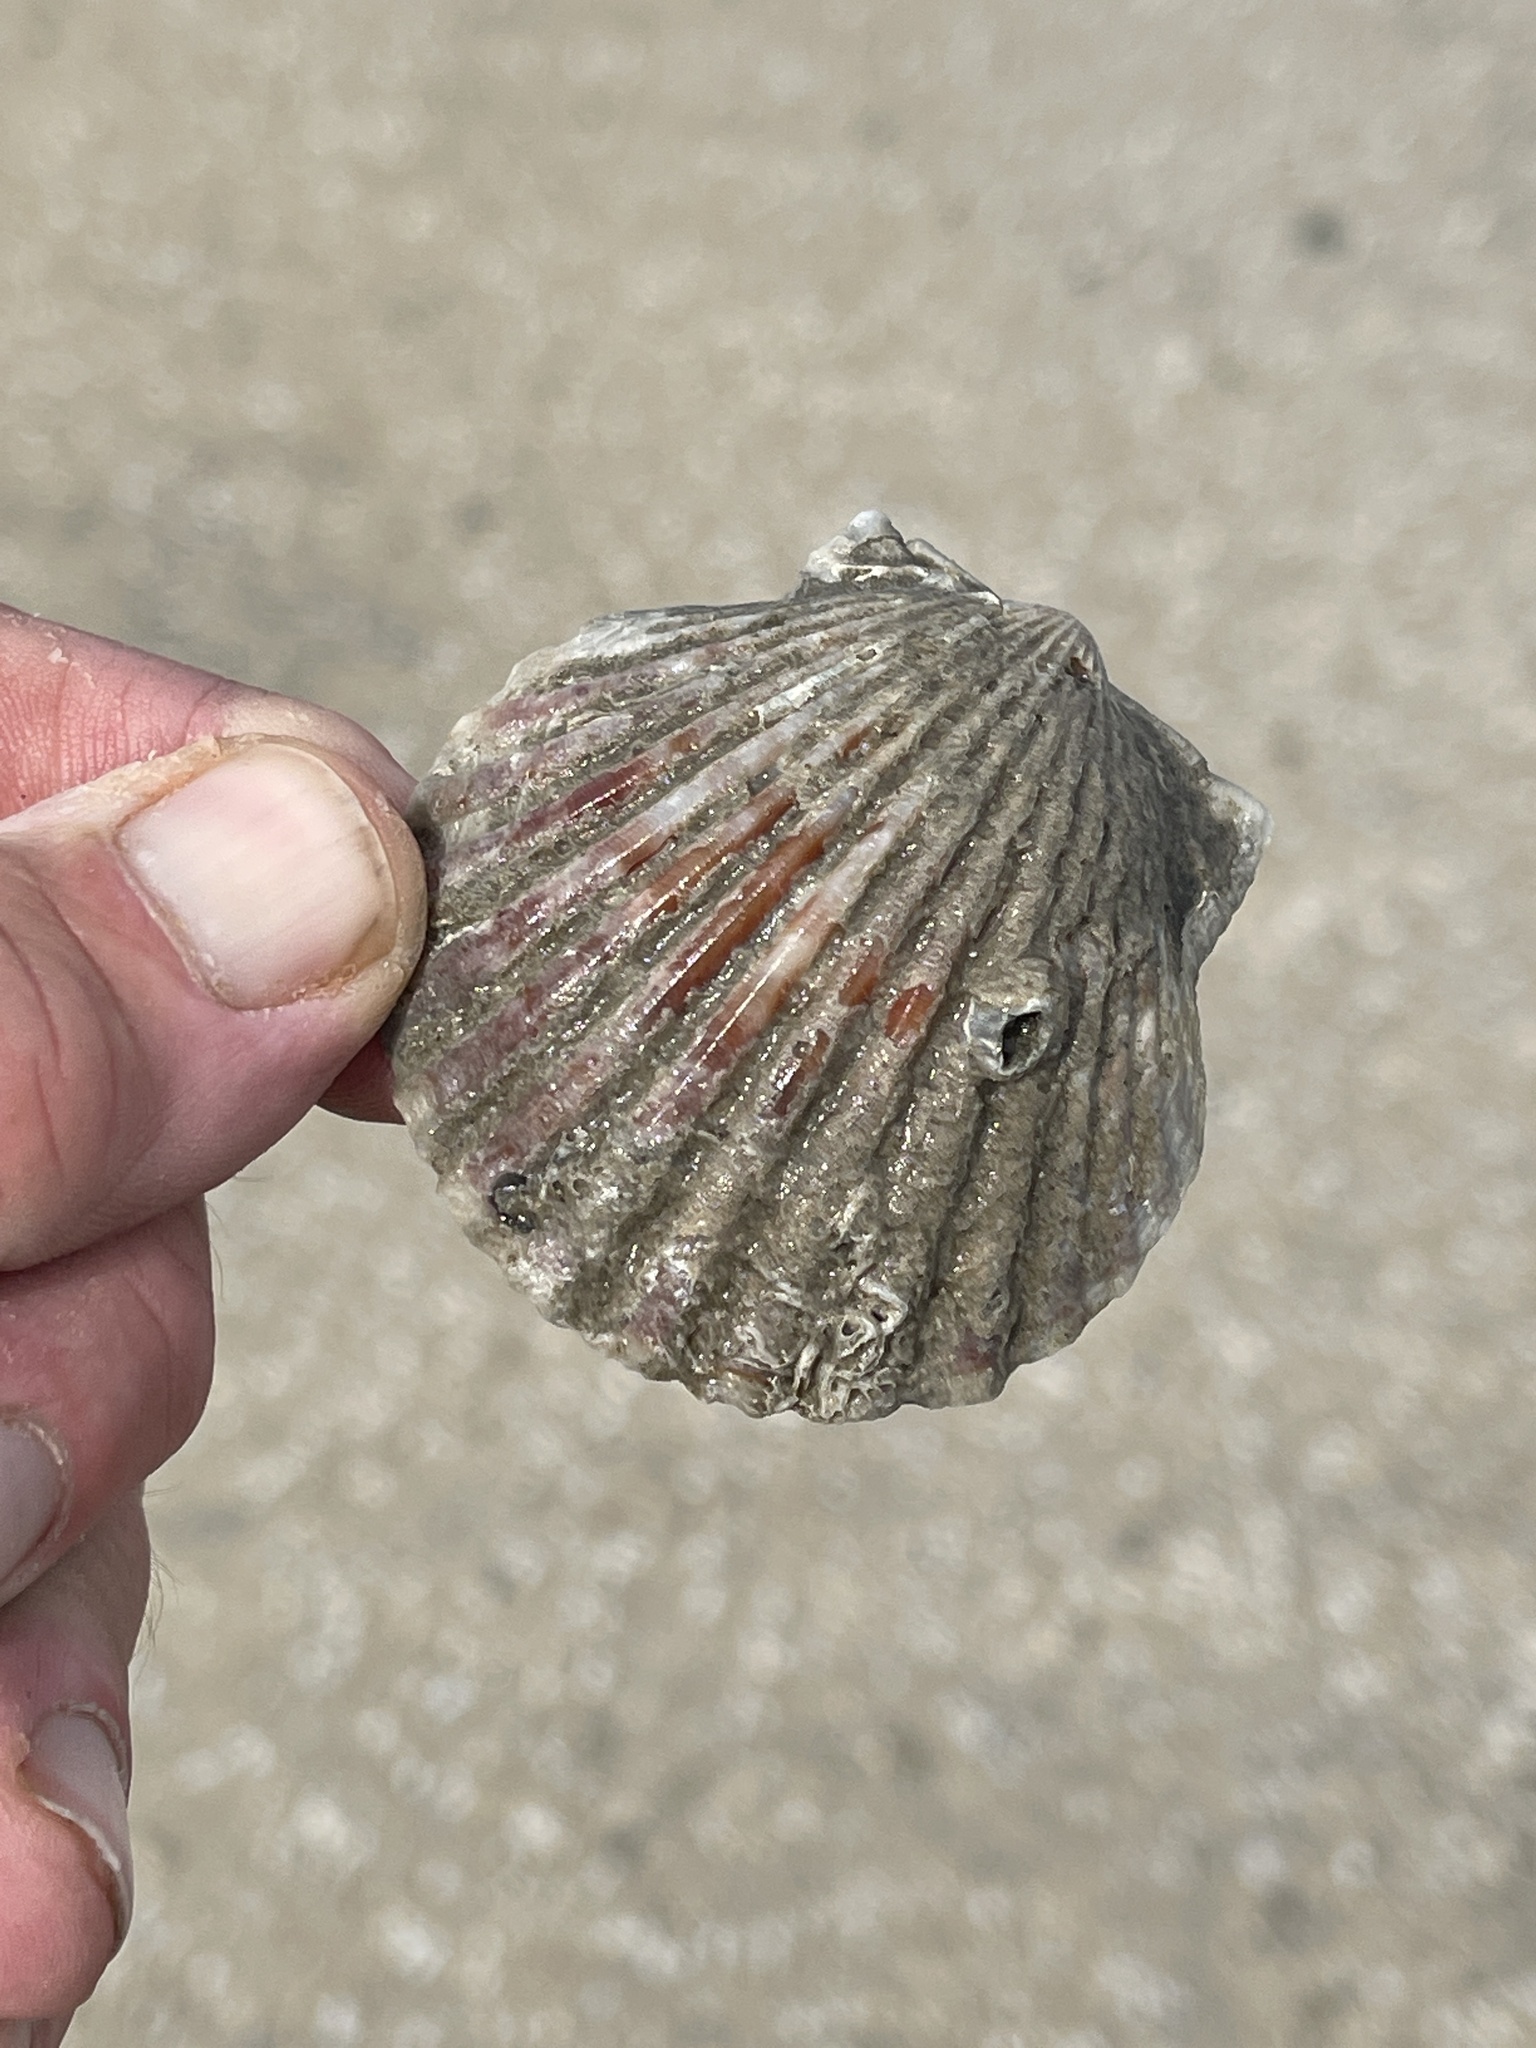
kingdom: Animalia
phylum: Mollusca
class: Bivalvia
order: Pectinida
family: Pectinidae
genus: Argopecten
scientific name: Argopecten irradians
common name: Atlantic bay scallop
